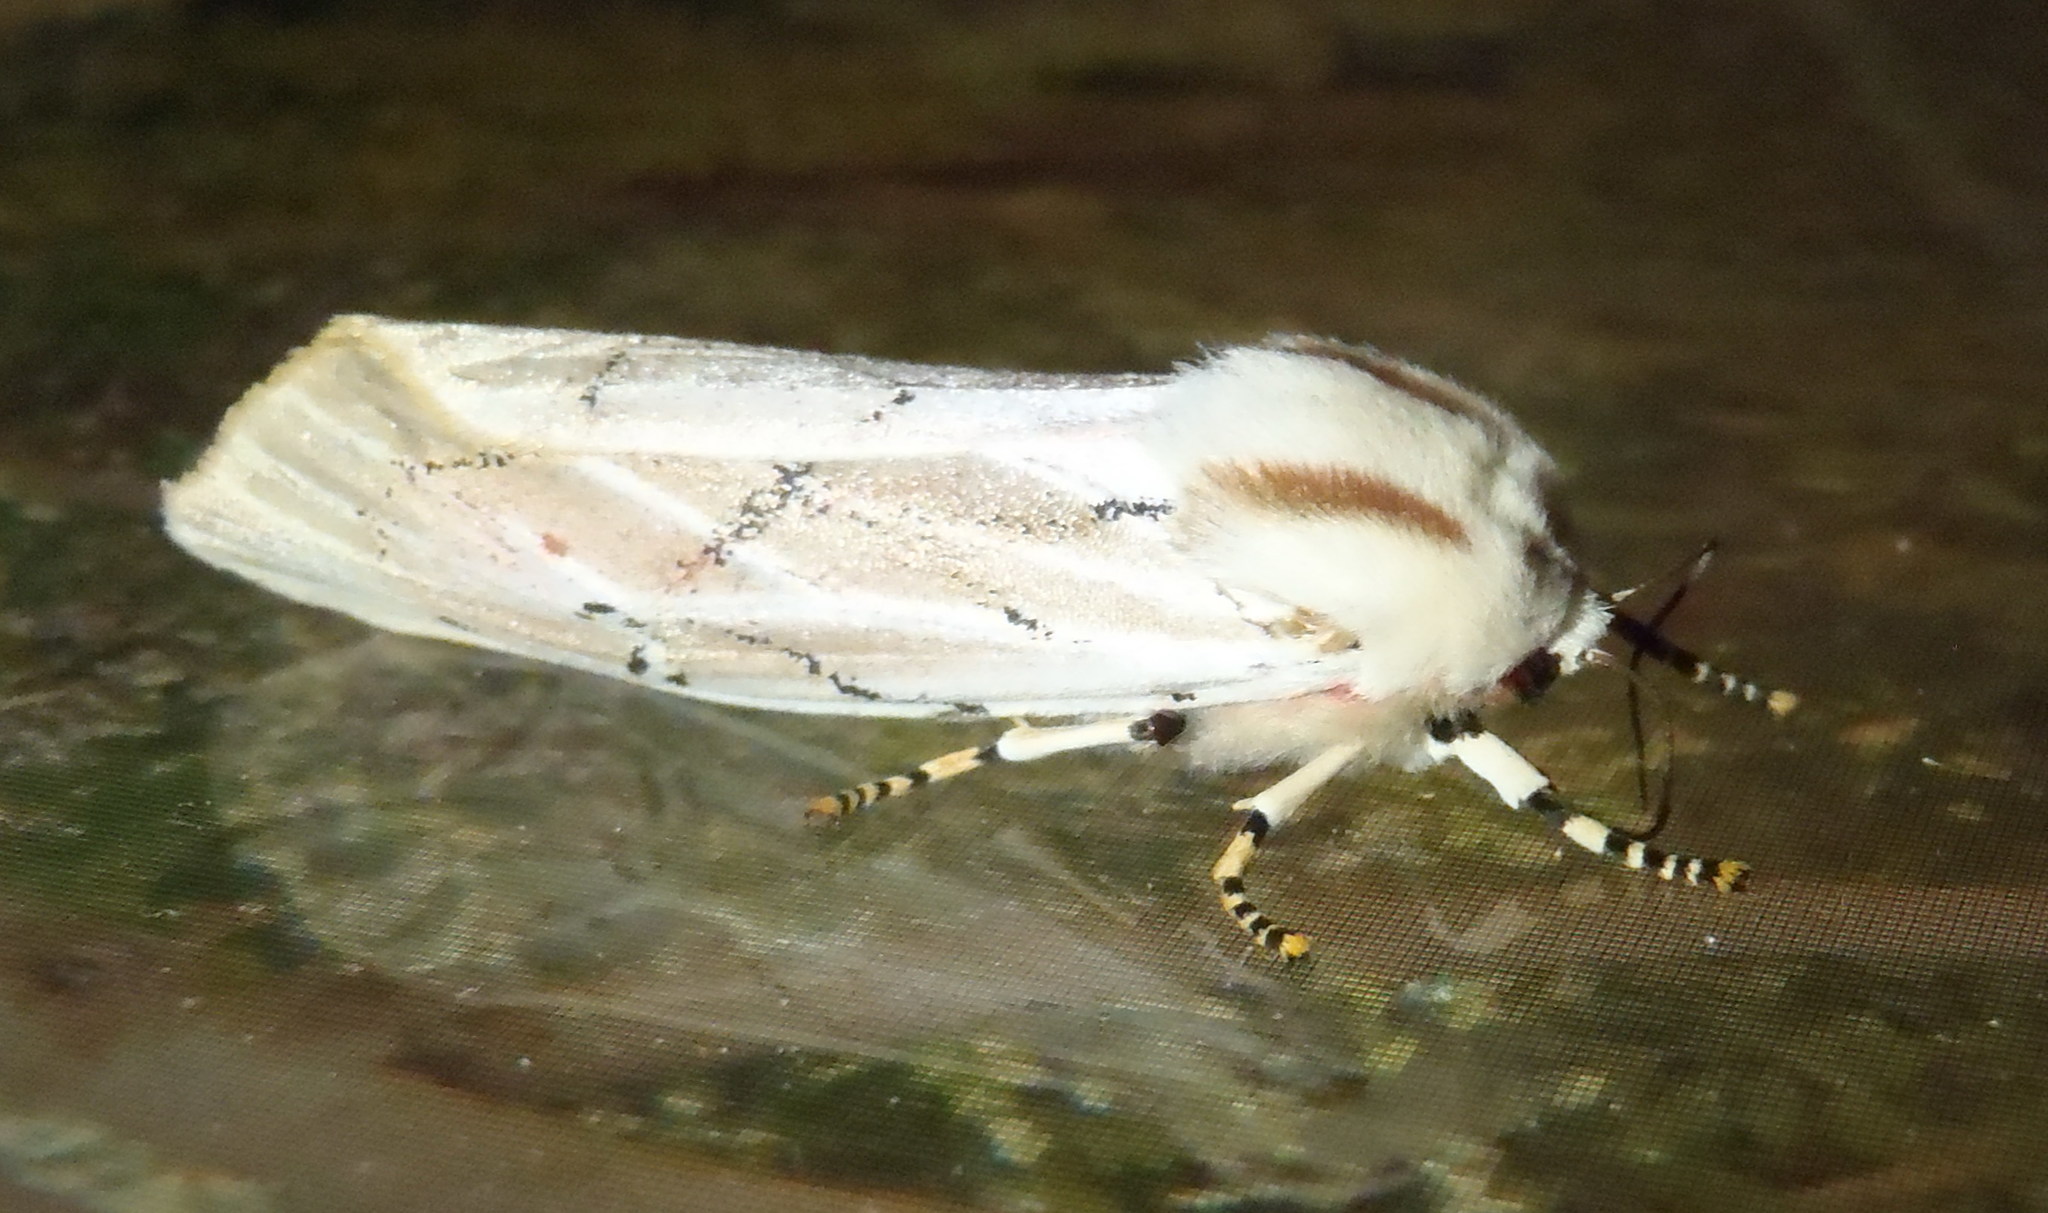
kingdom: Animalia
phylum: Arthropoda
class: Insecta
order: Lepidoptera
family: Erebidae
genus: Rhodogastria
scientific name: Rhodogastria amasis
